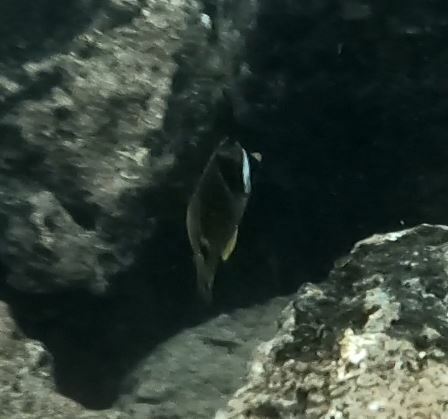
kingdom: Animalia
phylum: Chordata
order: Perciformes
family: Chaetodontidae
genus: Chaetodon
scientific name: Chaetodon lunula
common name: Raccoon butterflyfish
